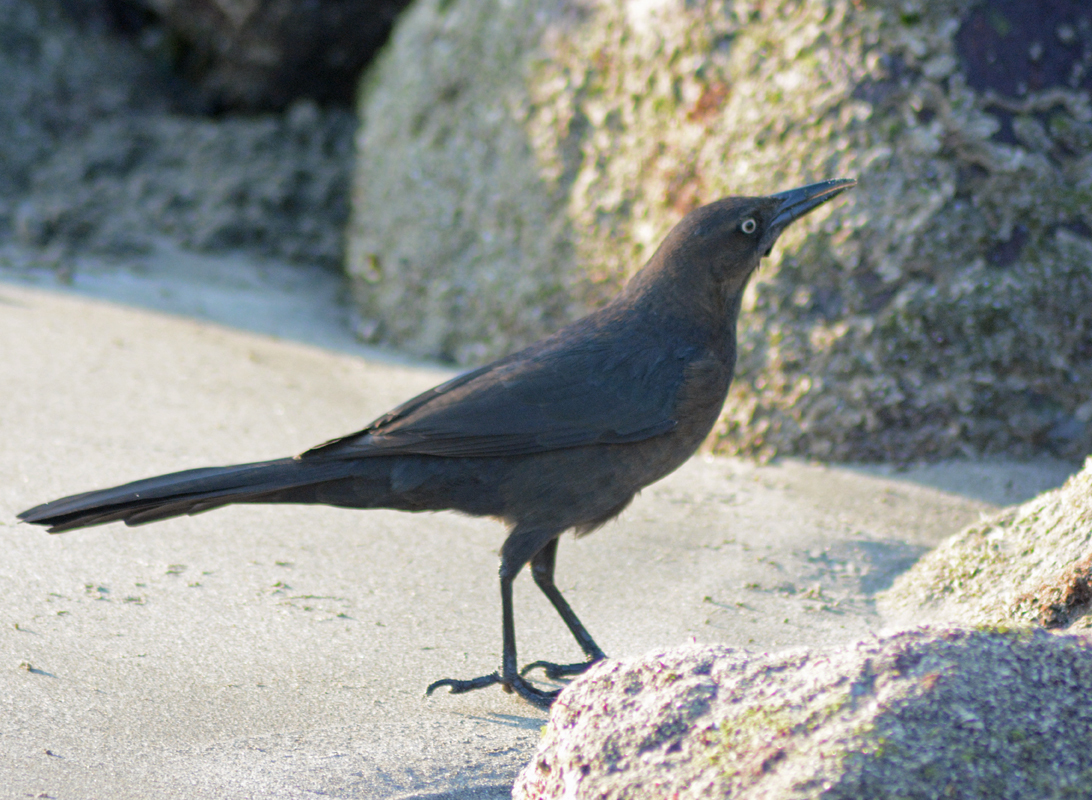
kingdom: Animalia
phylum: Chordata
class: Aves
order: Passeriformes
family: Icteridae
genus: Quiscalus
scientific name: Quiscalus mexicanus
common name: Great-tailed grackle
